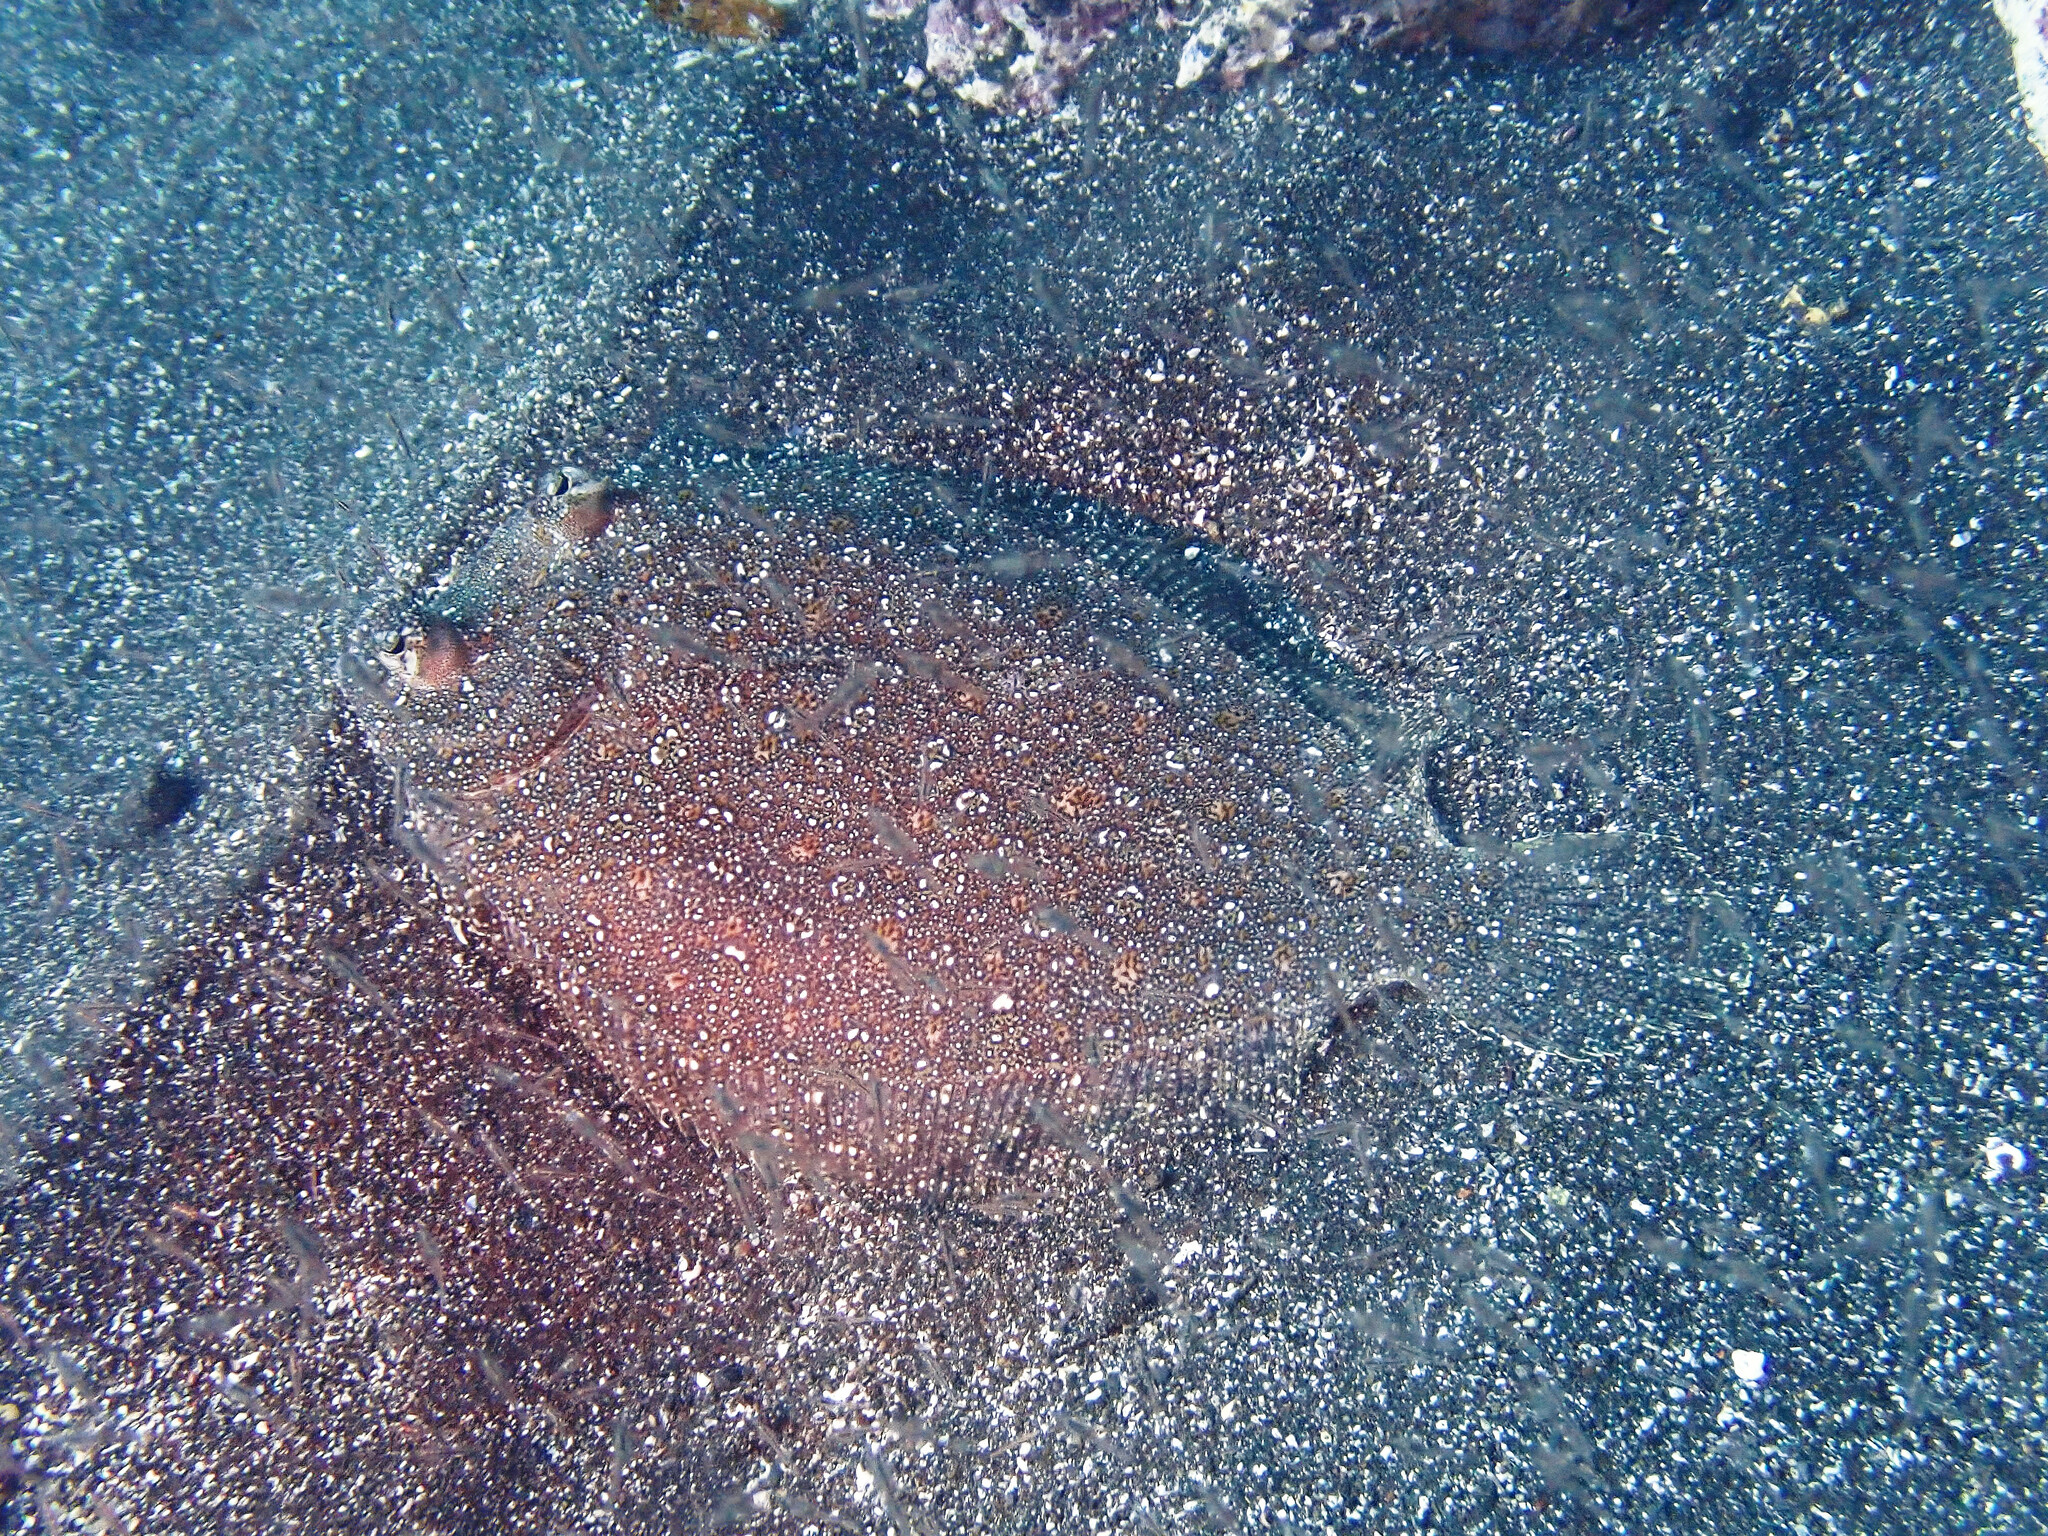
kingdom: Animalia
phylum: Chordata
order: Pleuronectiformes
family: Bothidae
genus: Bothus
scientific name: Bothus podas
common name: Wide-eyed flounder
